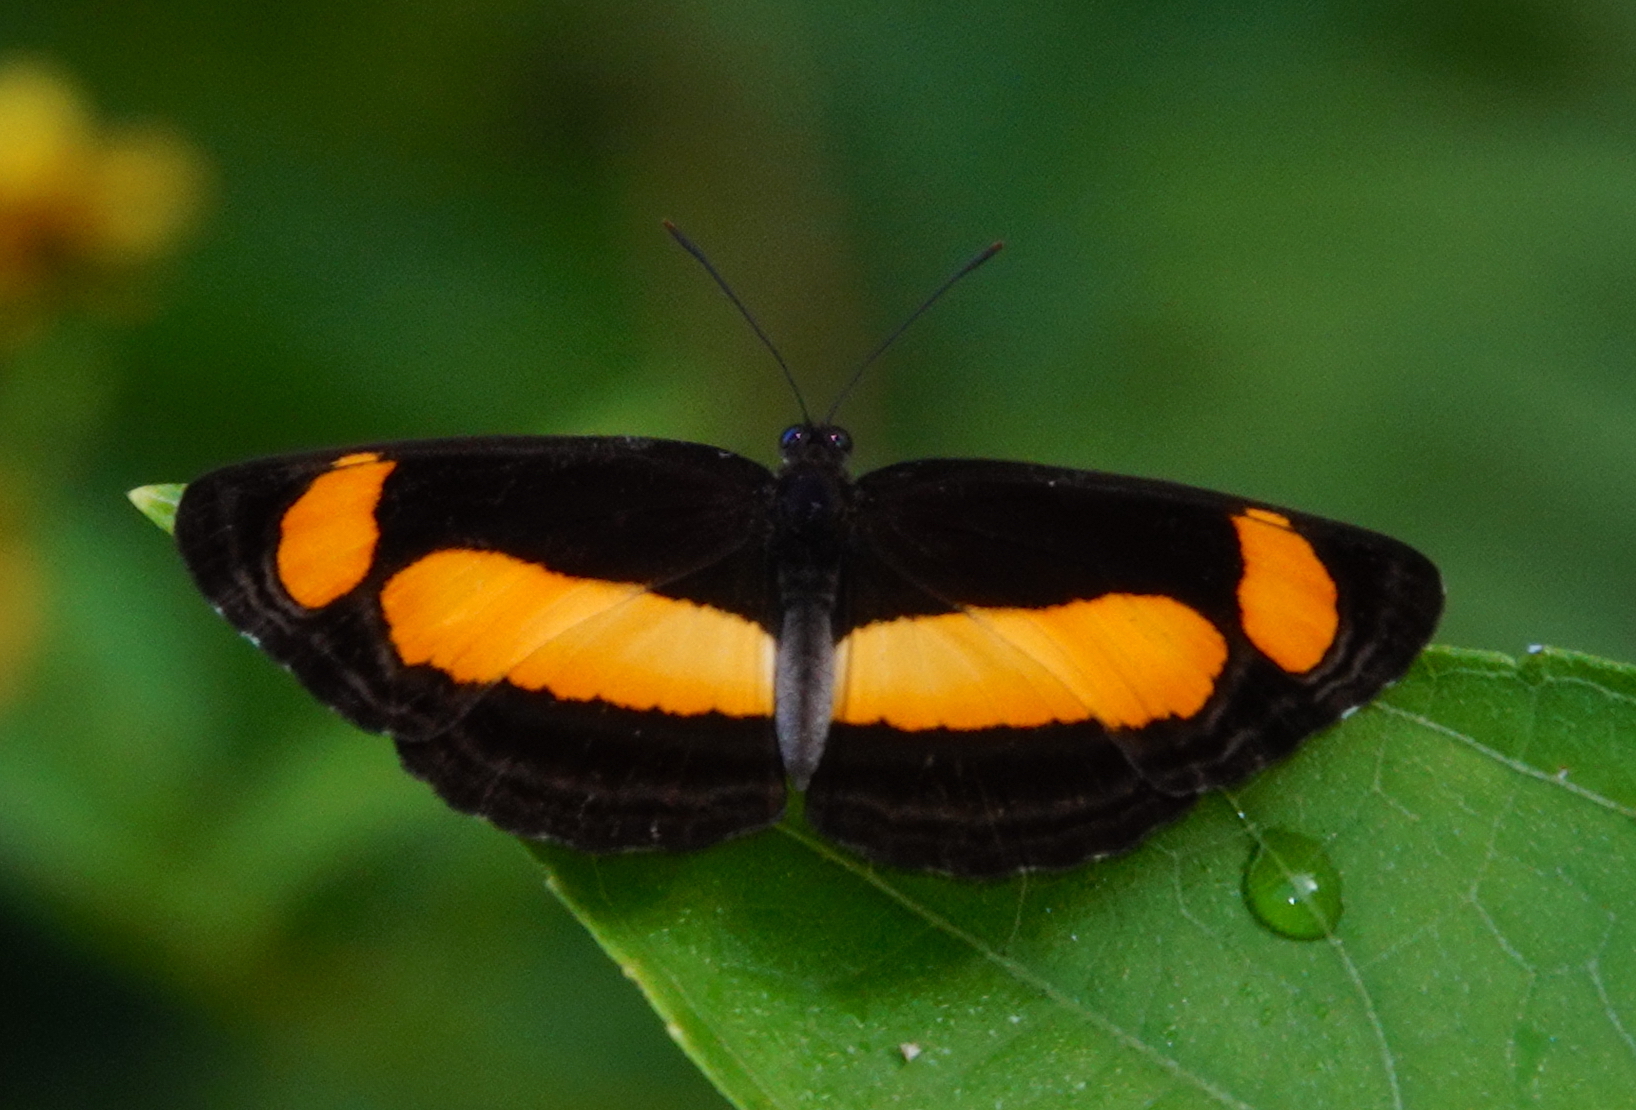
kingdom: Animalia
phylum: Arthropoda
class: Insecta
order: Lepidoptera
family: Nymphalidae
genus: Pantoporia
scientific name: Pantoporia consimilis
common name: Orange plane
